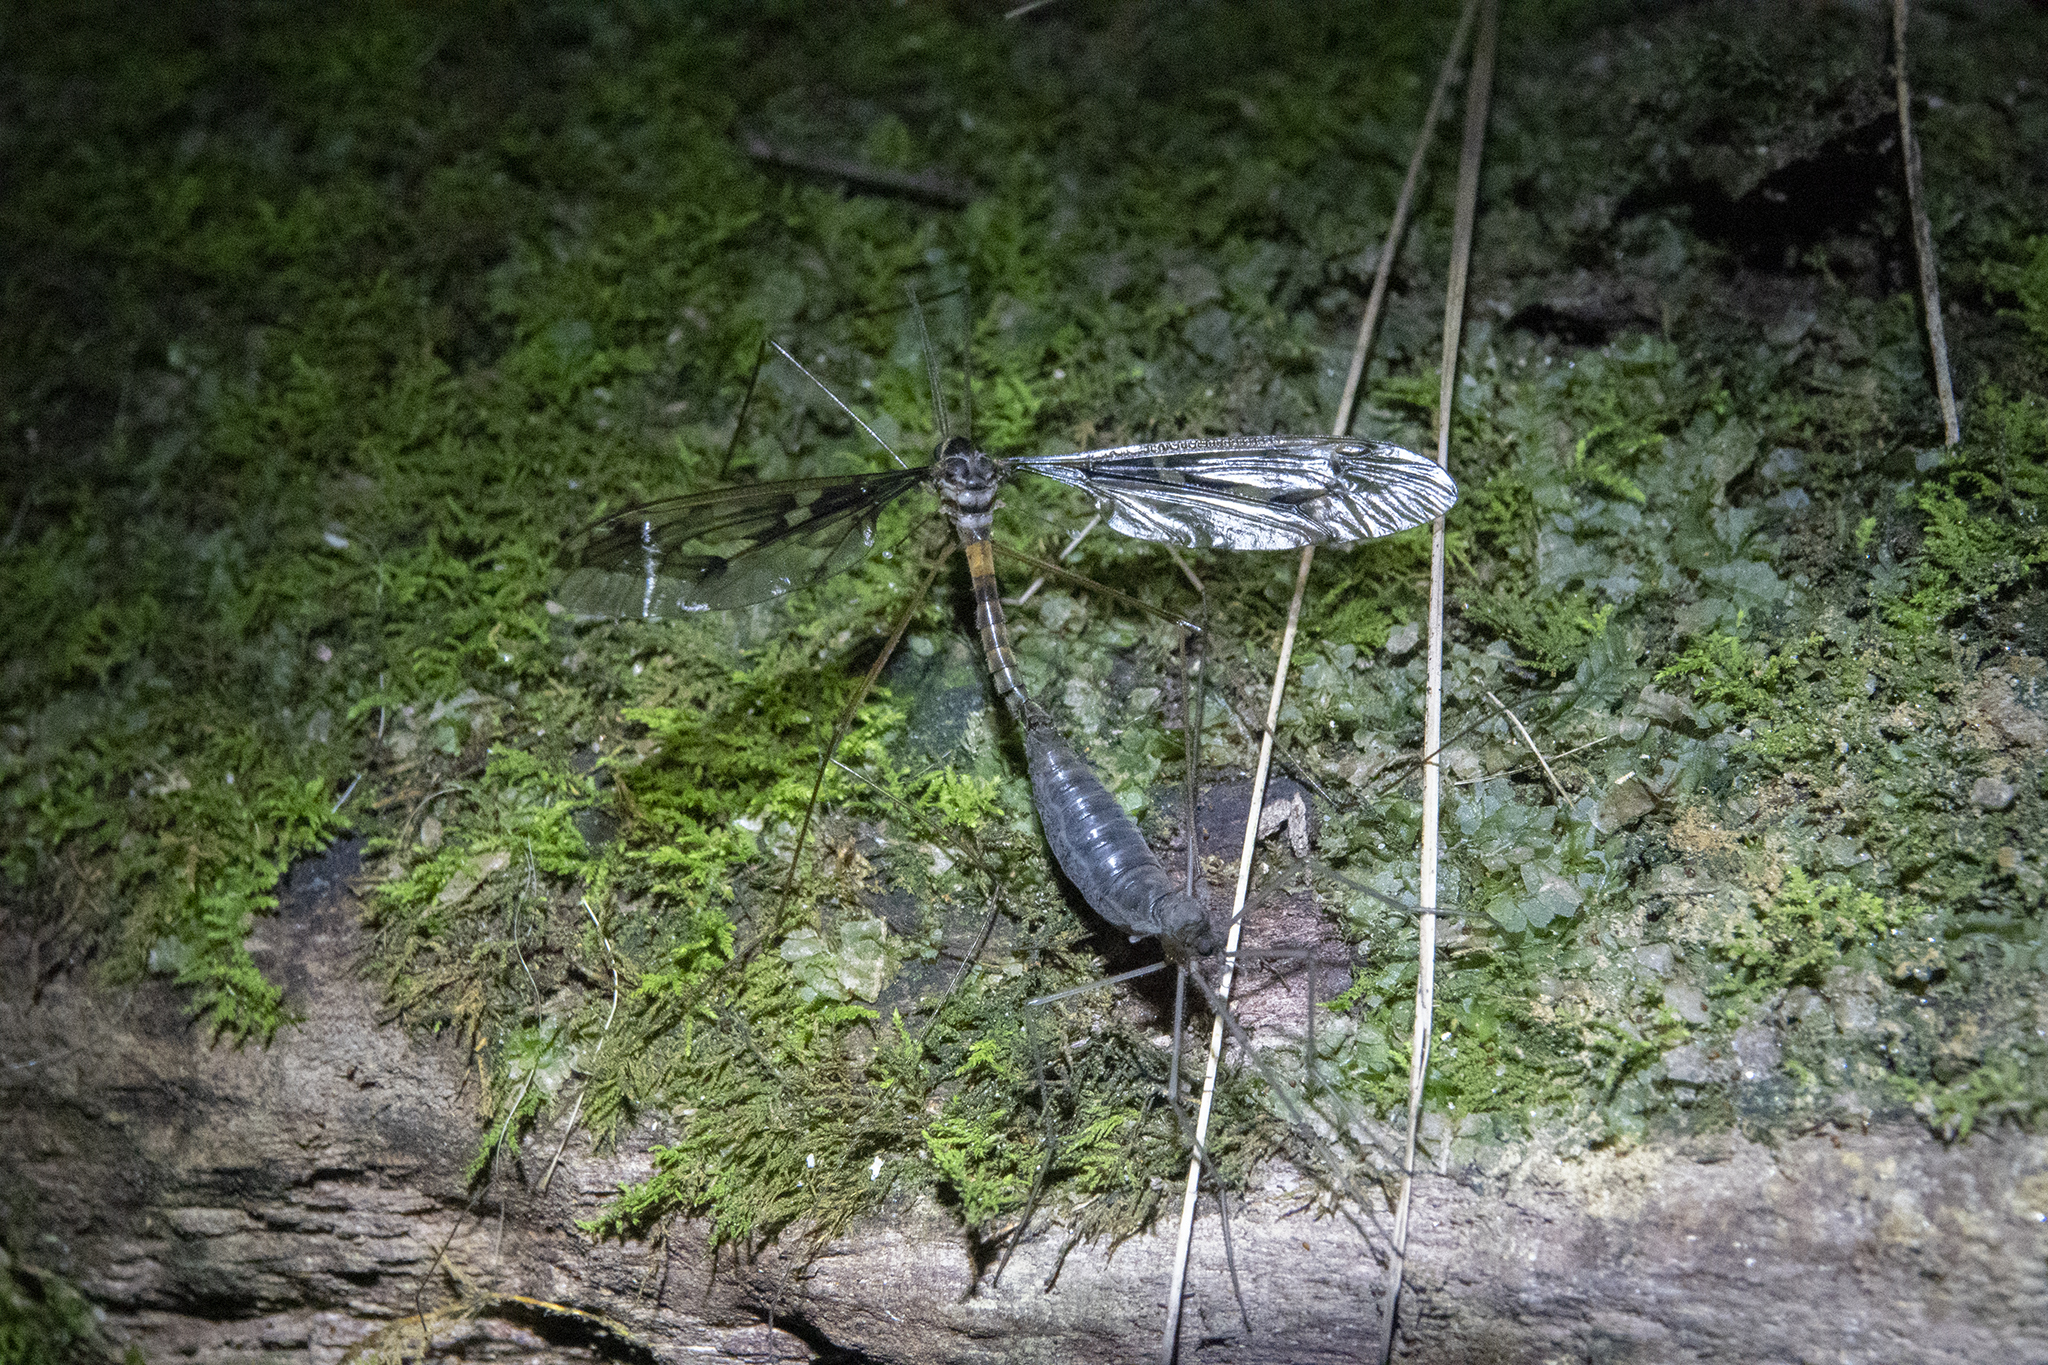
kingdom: Animalia
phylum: Arthropoda
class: Insecta
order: Diptera
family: Tipulidae
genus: Leptotarsus
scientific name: Leptotarsus binotatus
